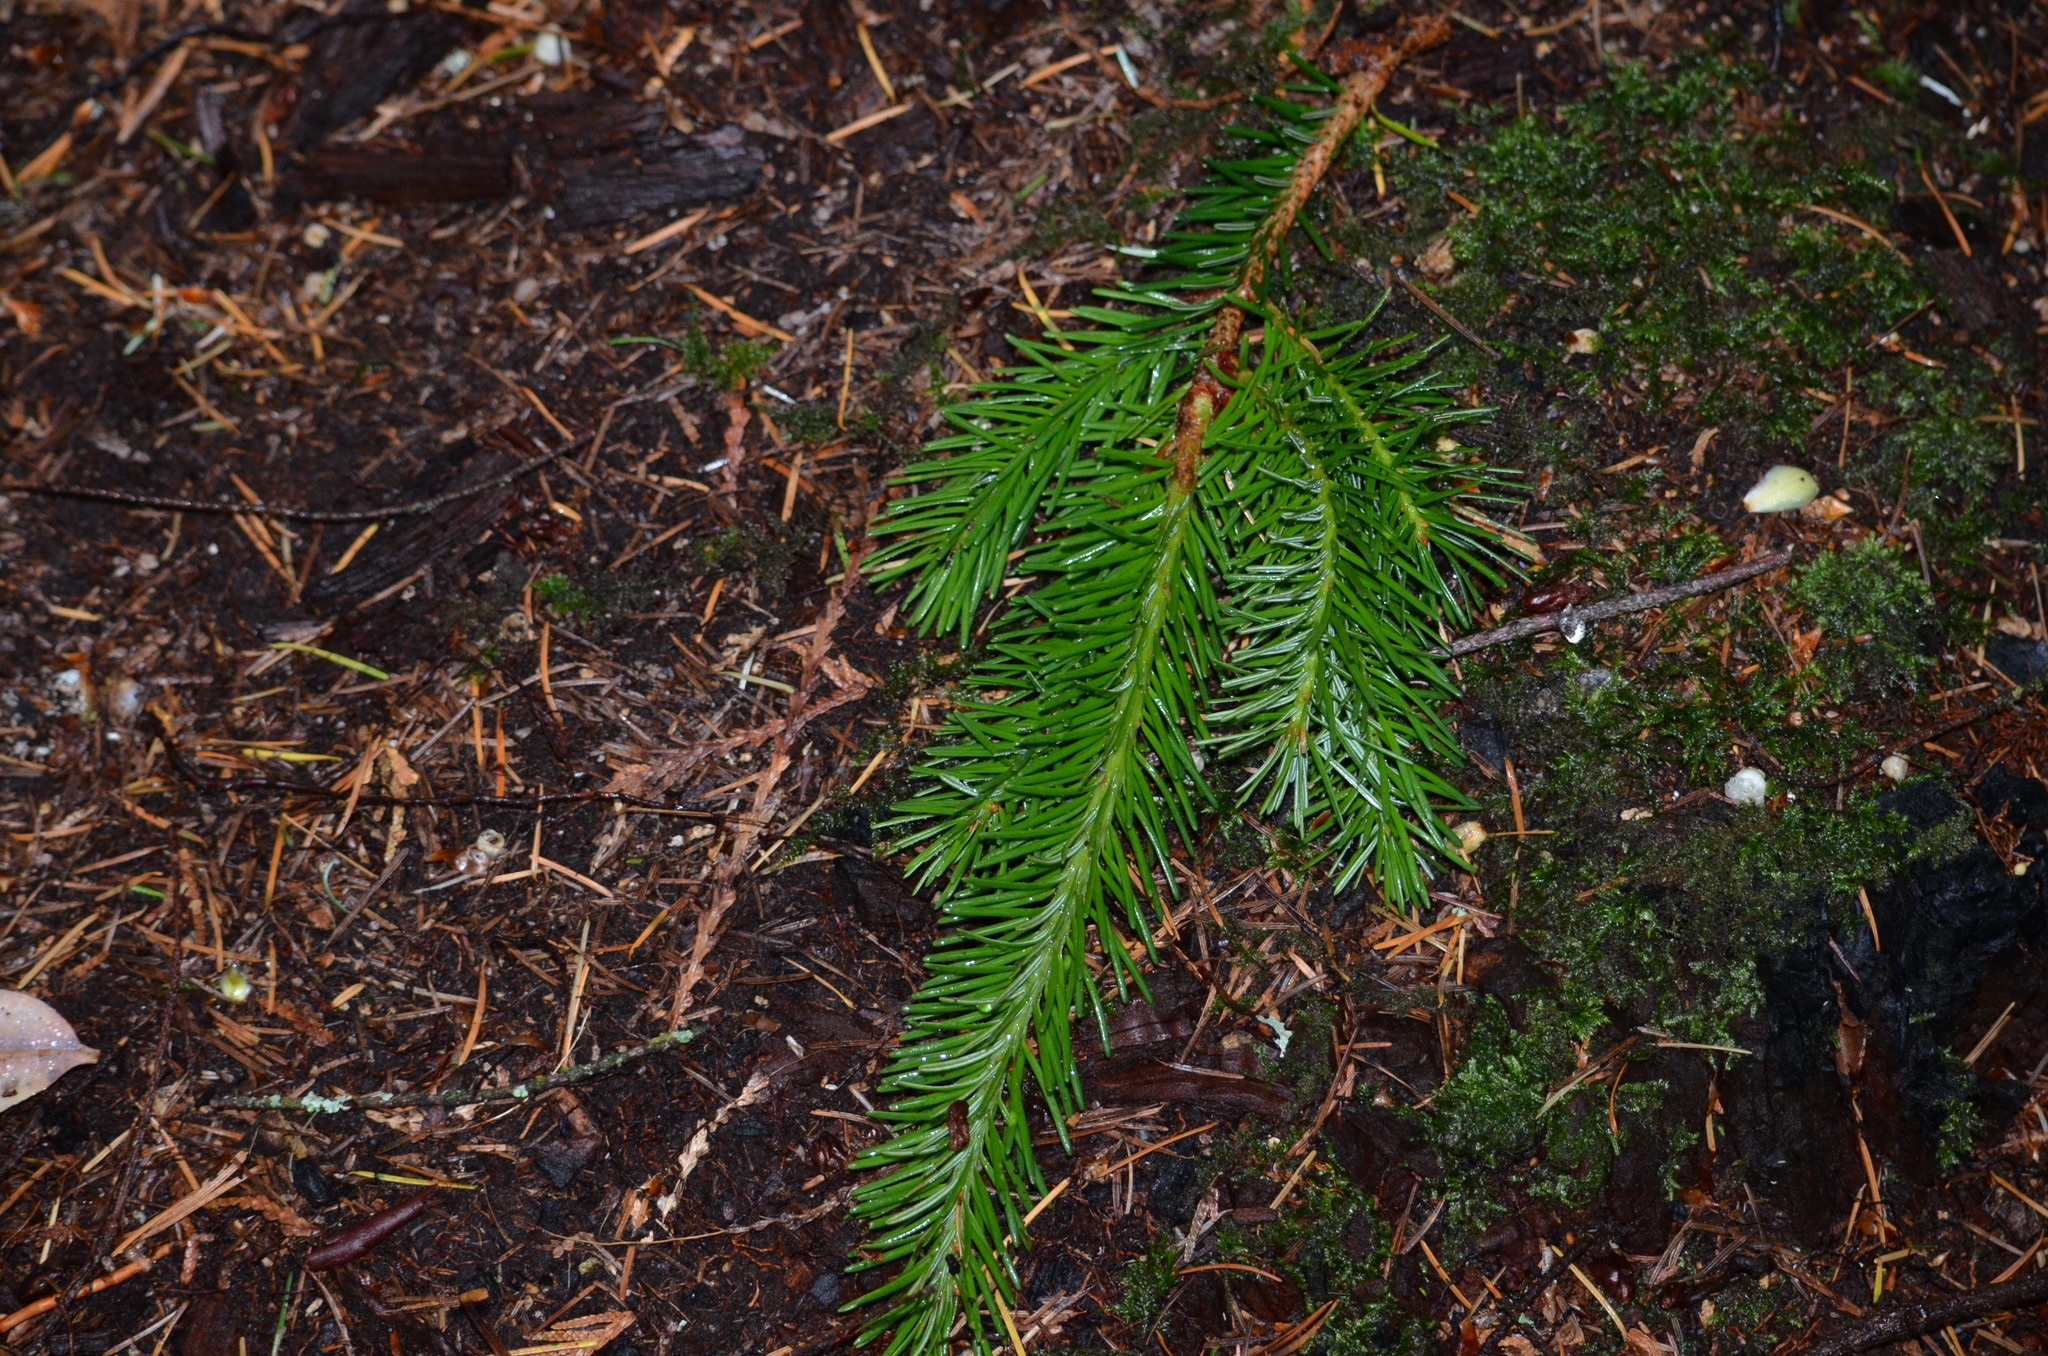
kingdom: Plantae
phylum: Tracheophyta
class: Pinopsida
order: Pinales
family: Pinaceae
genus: Pseudotsuga
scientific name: Pseudotsuga menziesii
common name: Douglas fir
